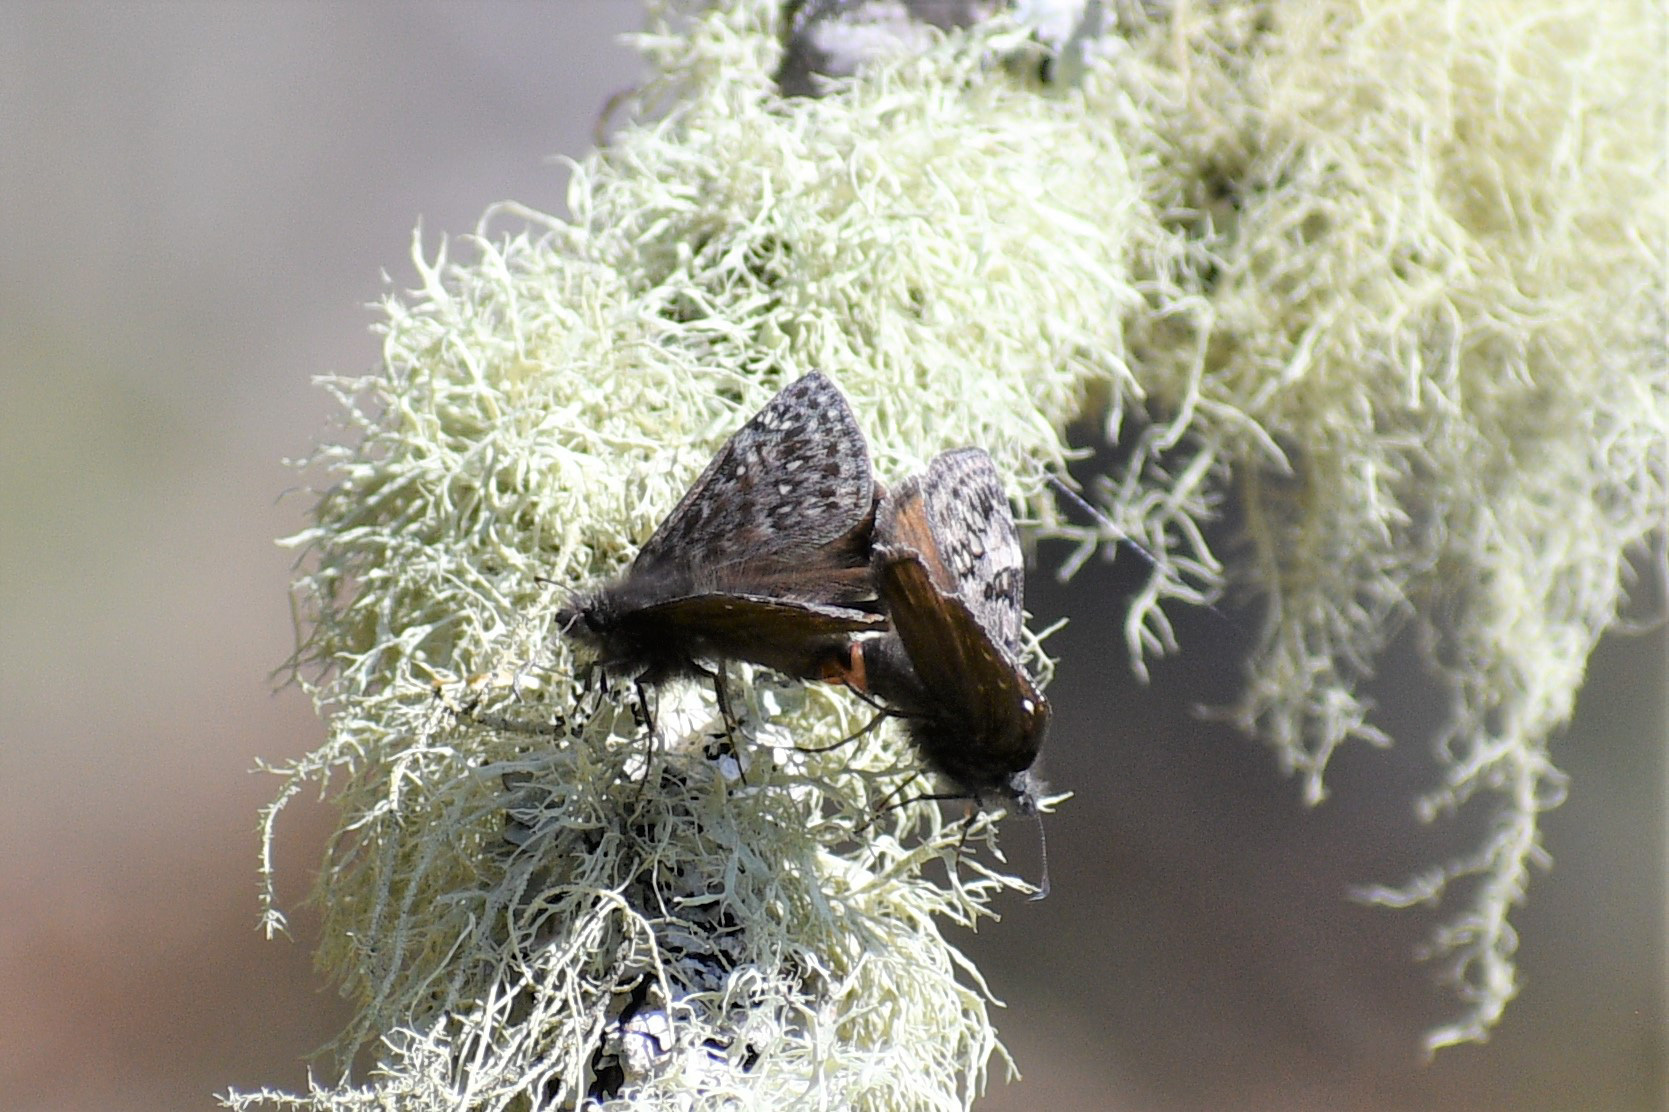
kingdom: Animalia
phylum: Arthropoda
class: Insecta
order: Lepidoptera
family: Hesperiidae
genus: Erynnis
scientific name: Erynnis propertius
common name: Propertius duskywing
